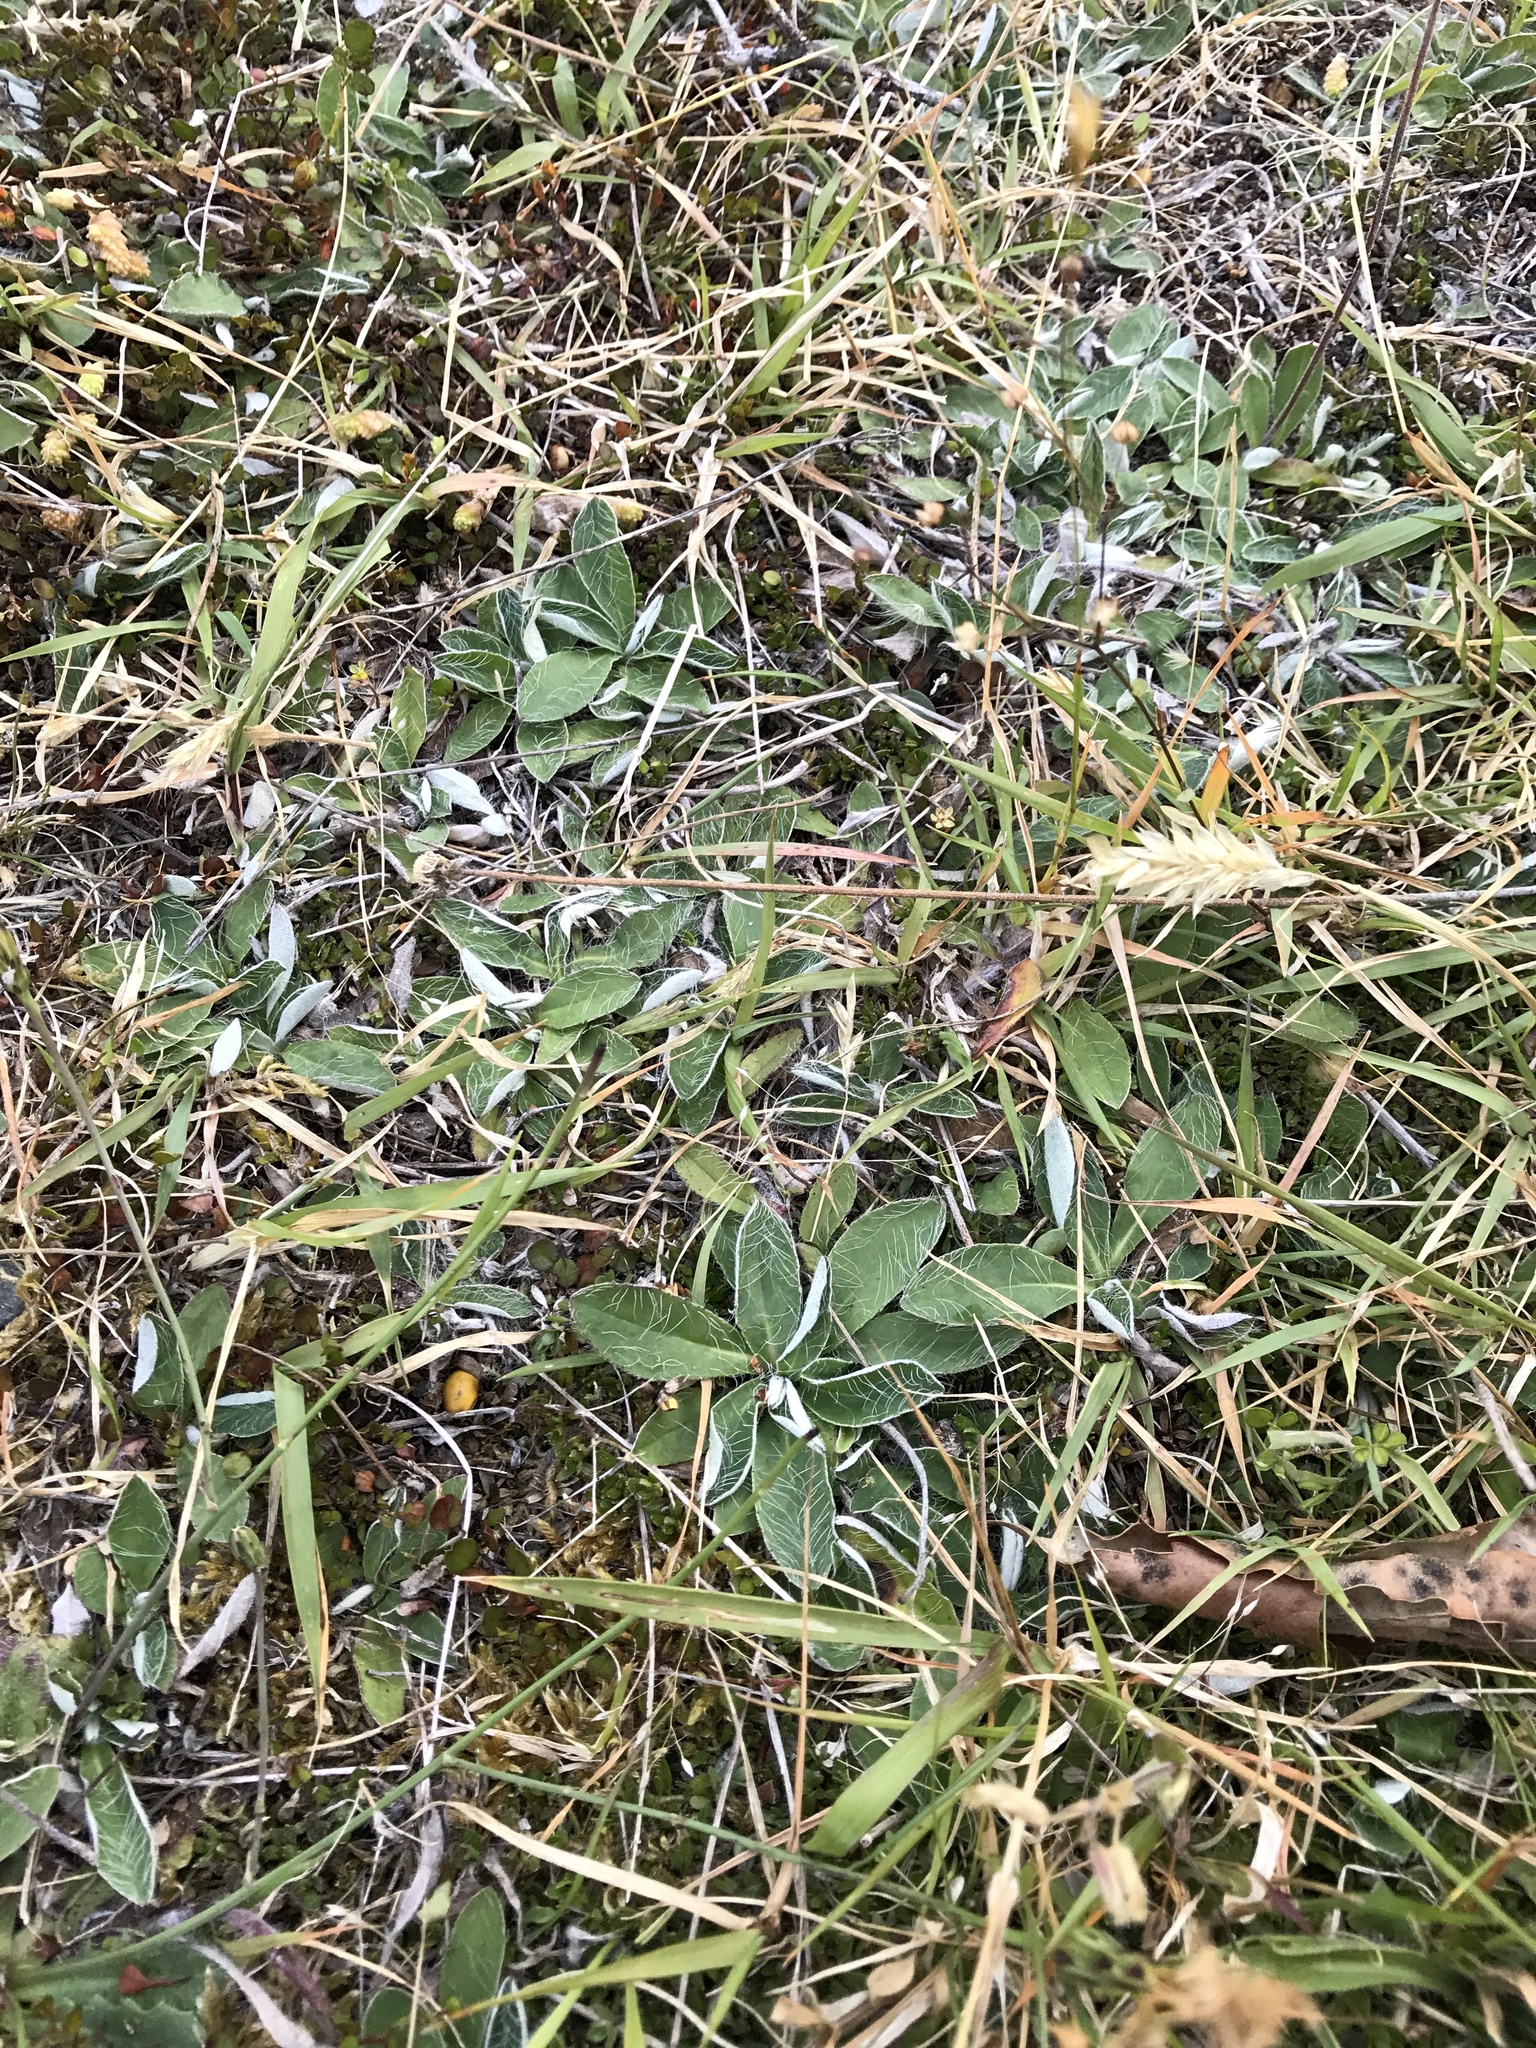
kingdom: Plantae
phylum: Tracheophyta
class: Magnoliopsida
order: Asterales
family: Asteraceae
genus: Pilosella
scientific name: Pilosella officinarum
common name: Mouse-ear hawkweed
